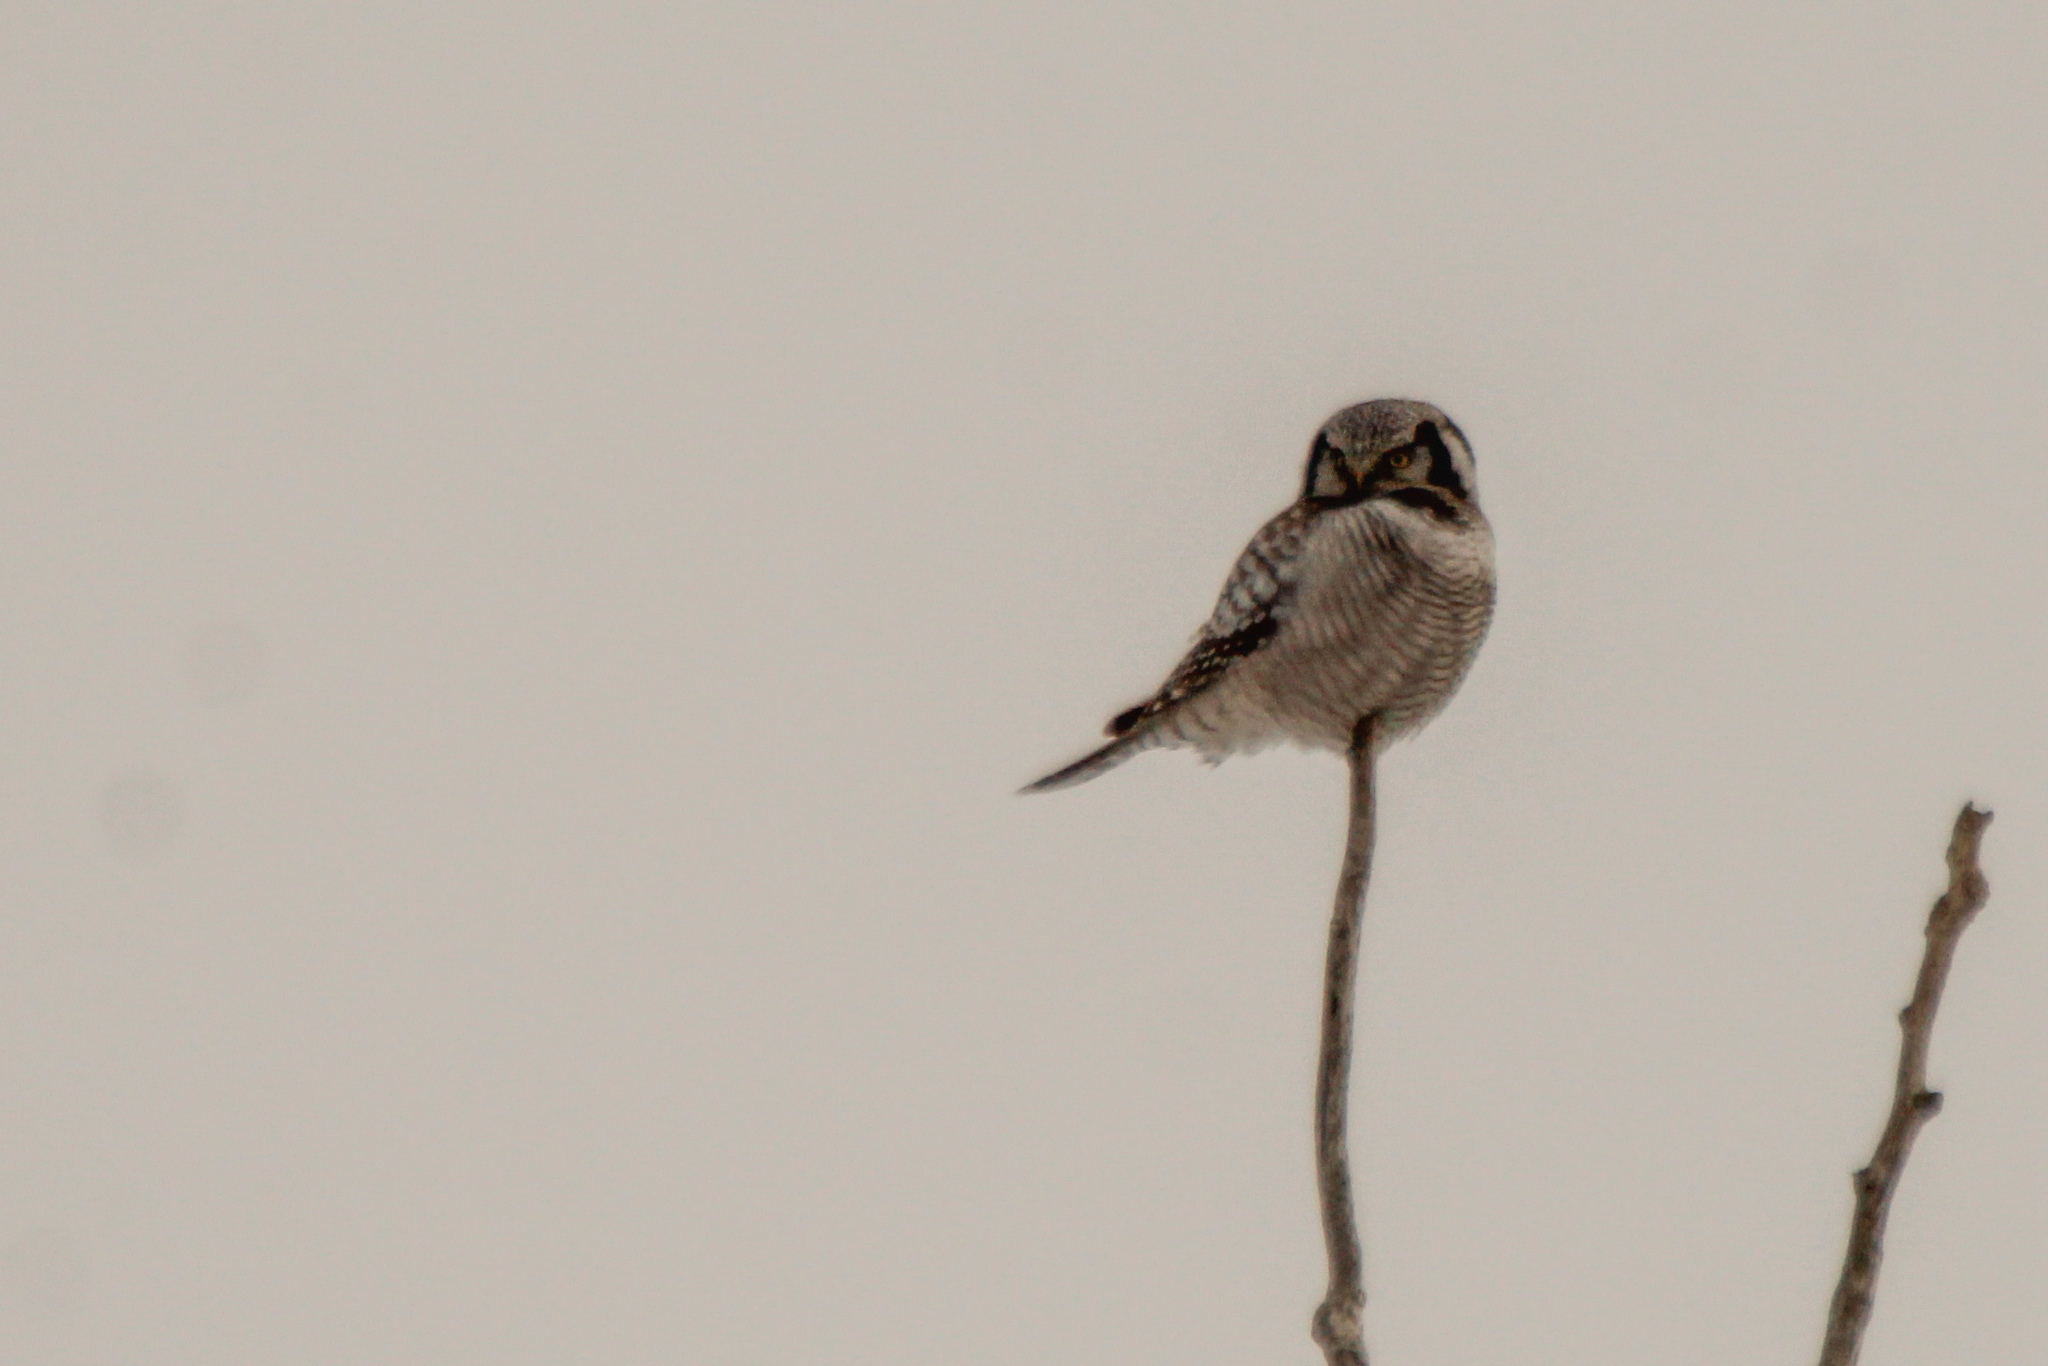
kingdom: Animalia
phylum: Chordata
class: Aves
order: Strigiformes
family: Strigidae
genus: Surnia
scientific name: Surnia ulula
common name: Northern hawk-owl
